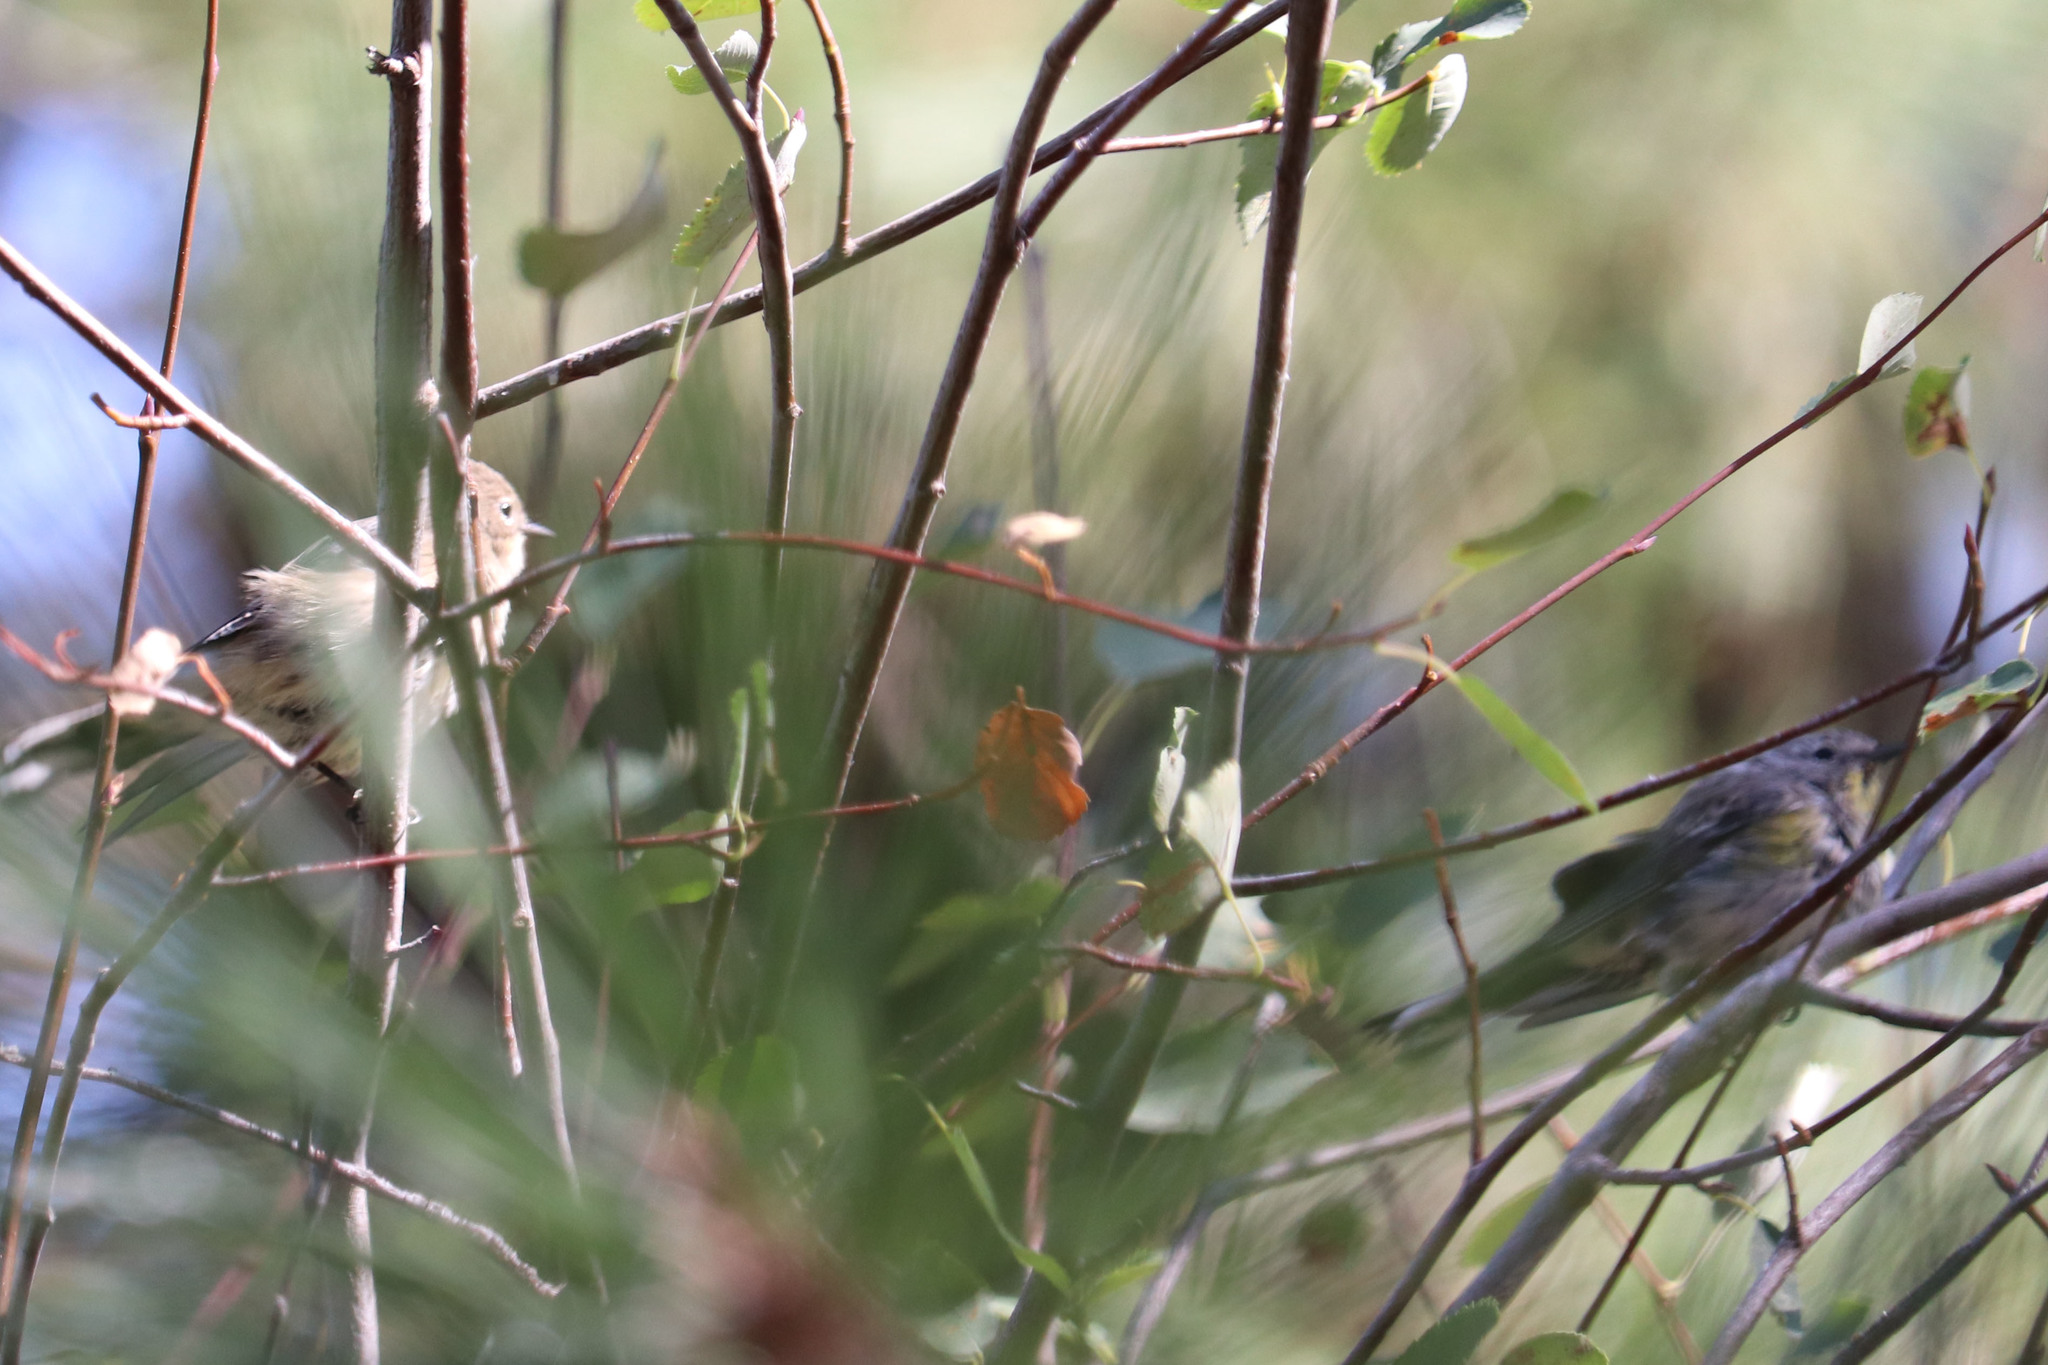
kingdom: Animalia
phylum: Chordata
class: Aves
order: Passeriformes
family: Parulidae
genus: Setophaga
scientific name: Setophaga coronata
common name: Myrtle warbler
